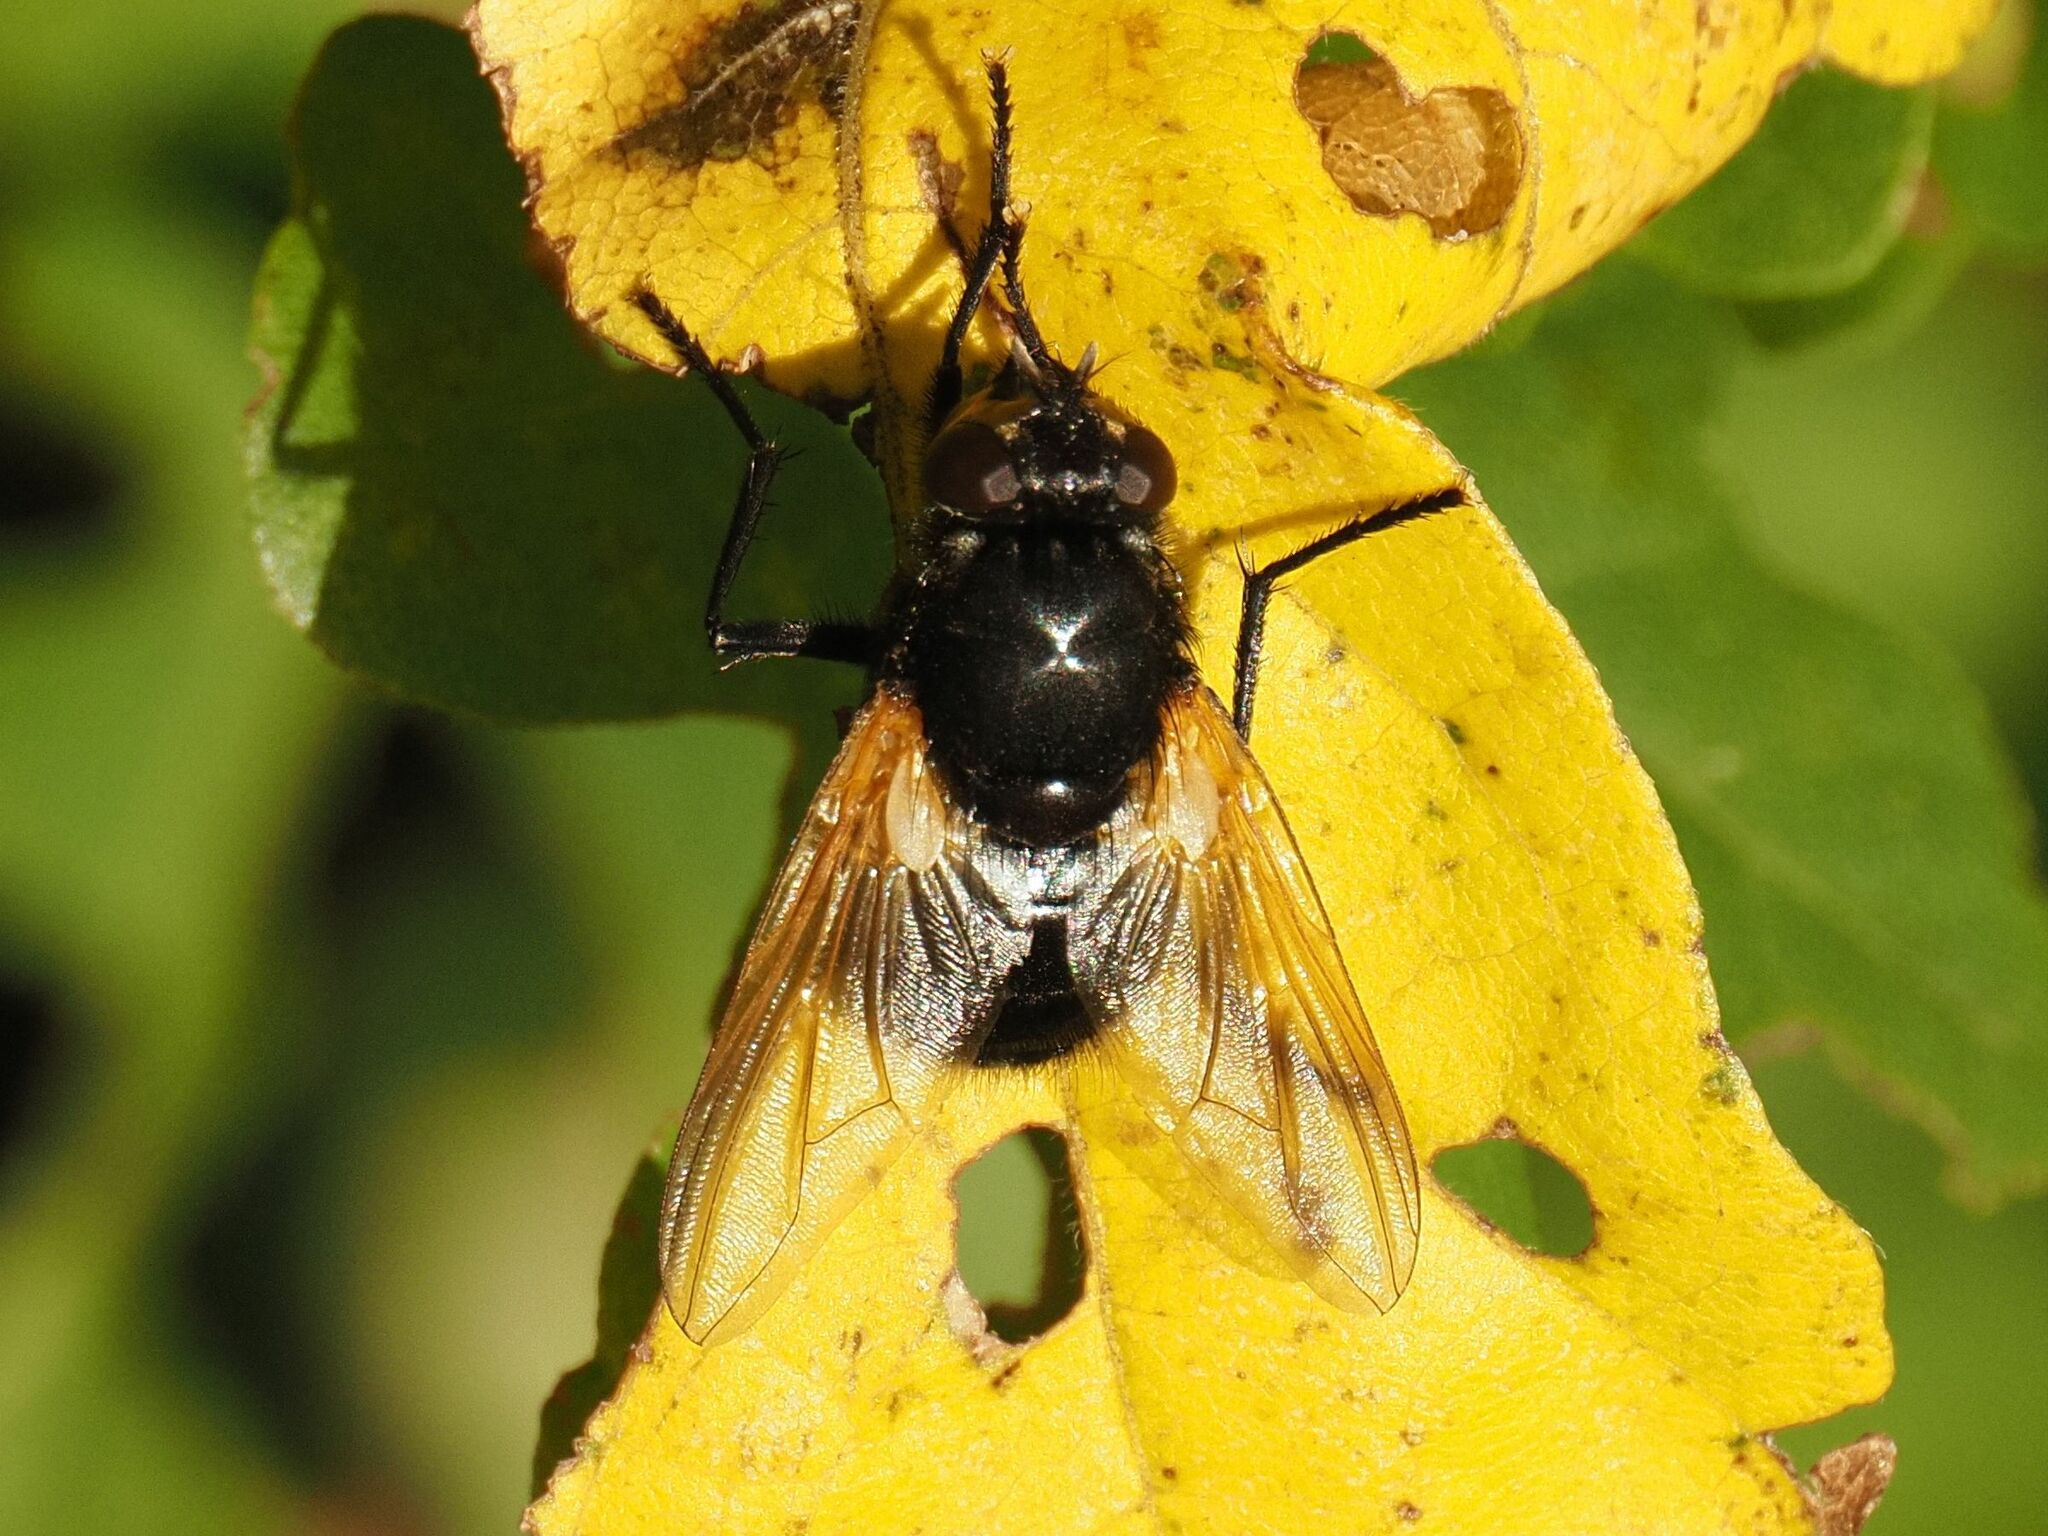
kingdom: Animalia
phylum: Arthropoda
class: Insecta
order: Diptera
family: Muscidae
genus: Mesembrina
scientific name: Mesembrina meridiana
